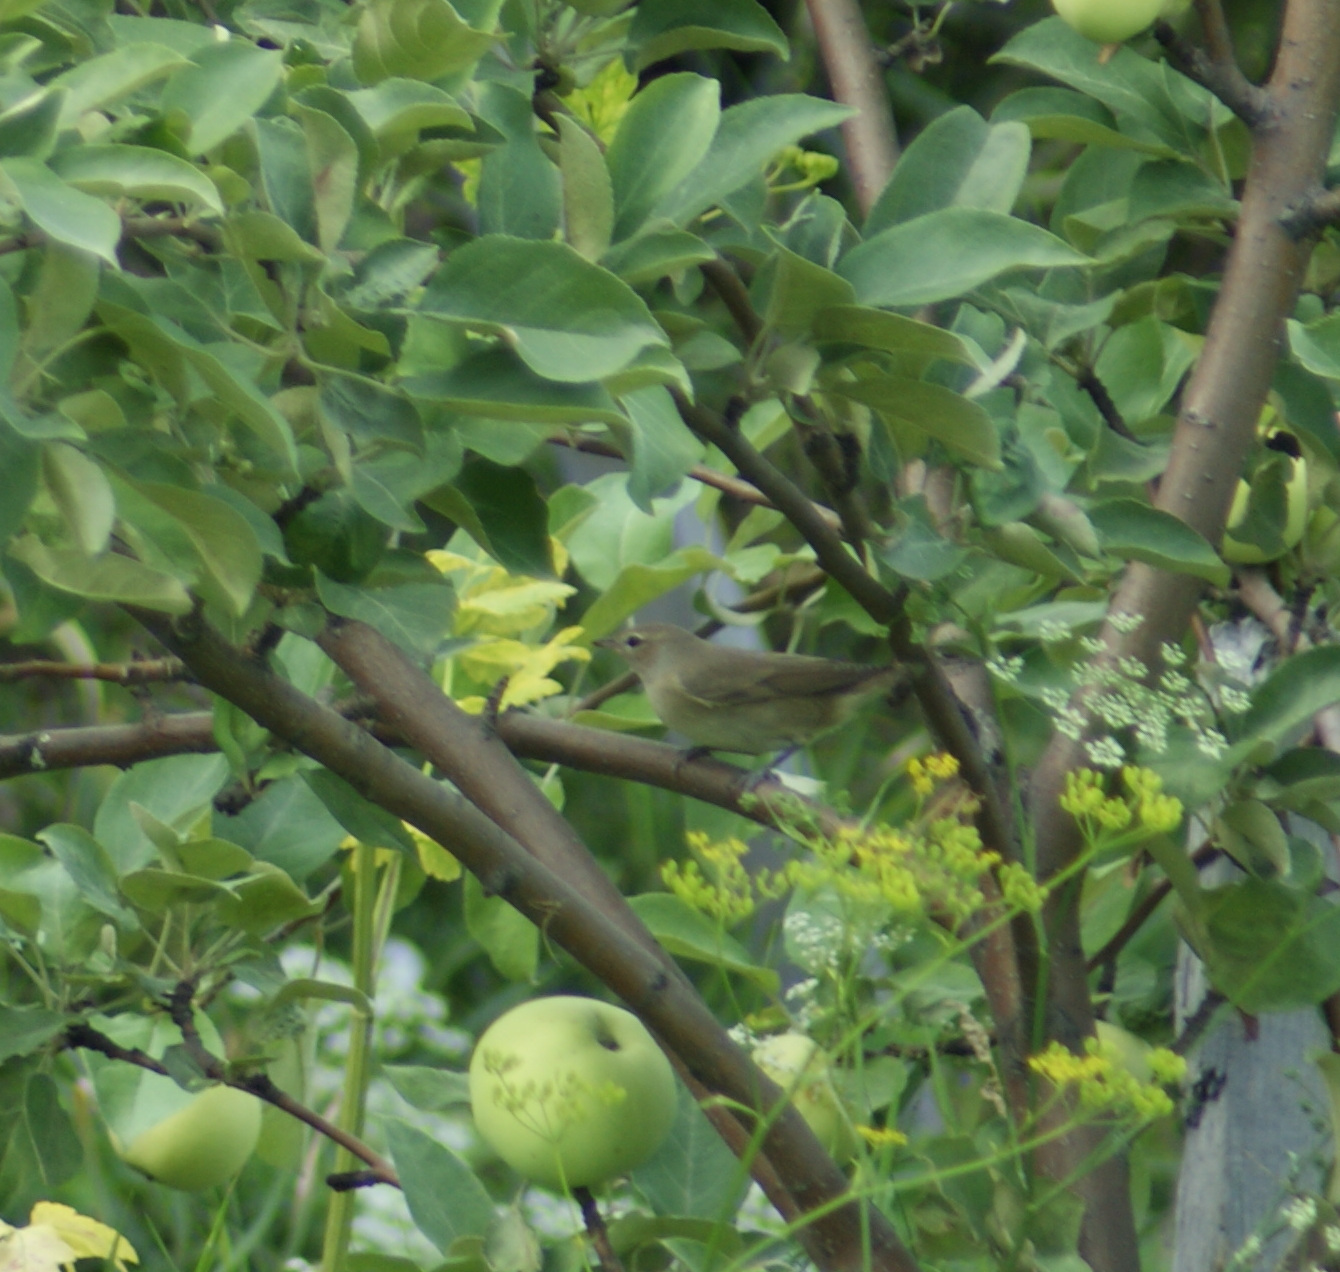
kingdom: Animalia
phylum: Chordata
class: Aves
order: Passeriformes
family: Sylviidae
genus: Sylvia
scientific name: Sylvia borin
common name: Garden warbler
